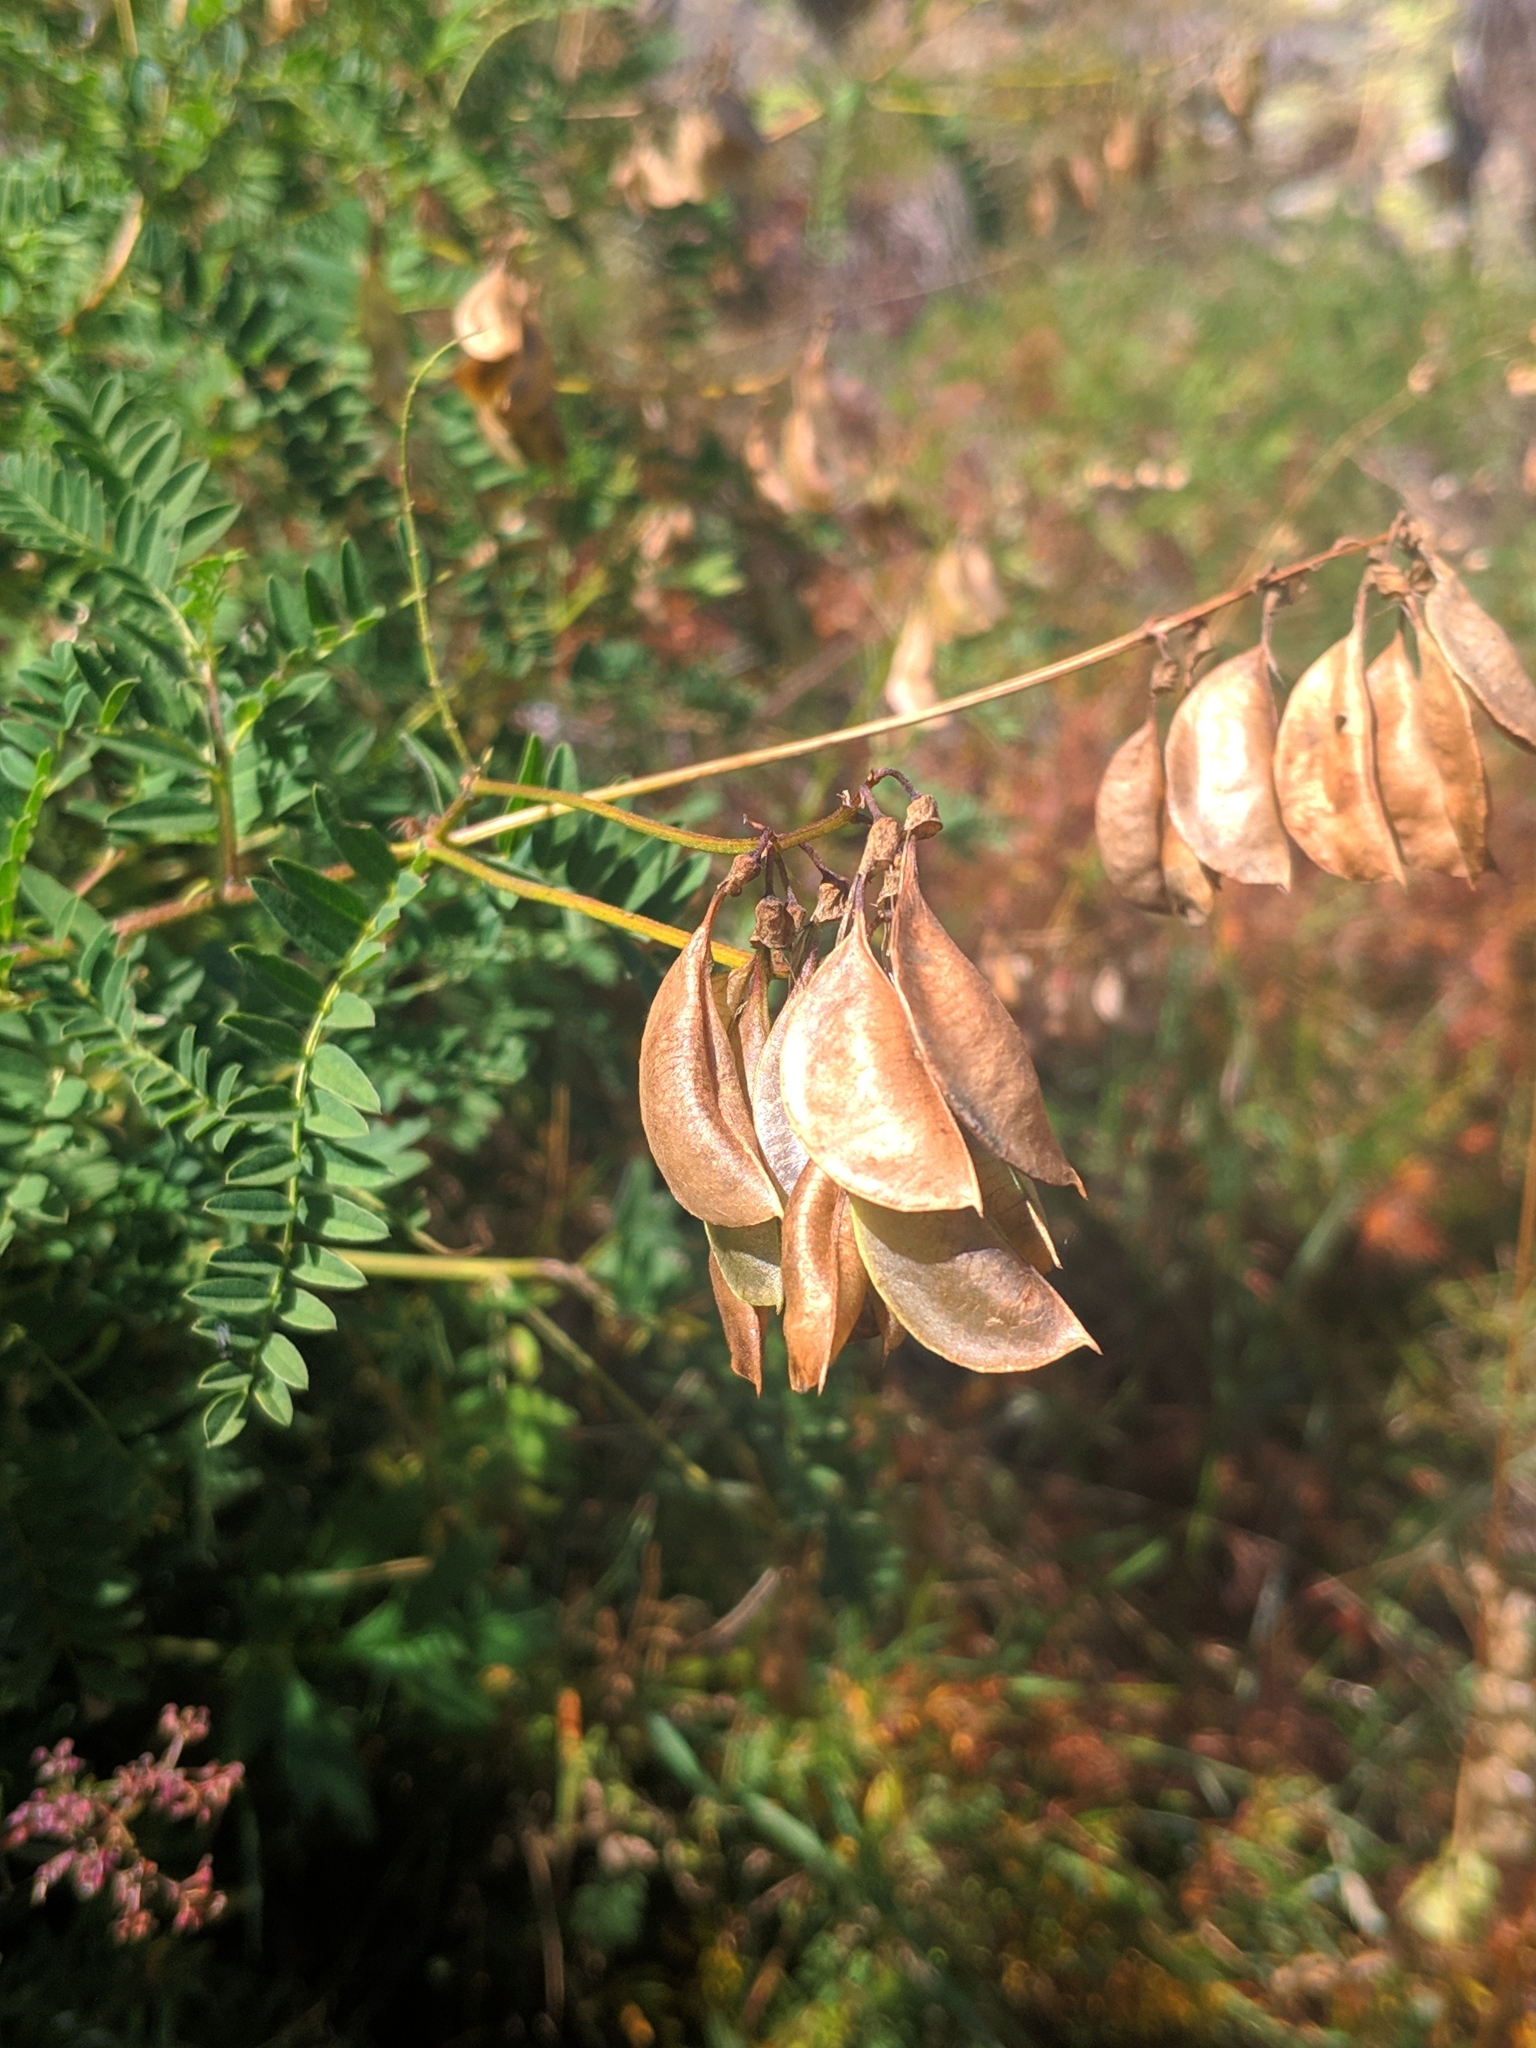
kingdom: Plantae
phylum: Tracheophyta
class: Magnoliopsida
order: Fabales
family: Fabaceae
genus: Astragalus
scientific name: Astragalus penduliflorus
